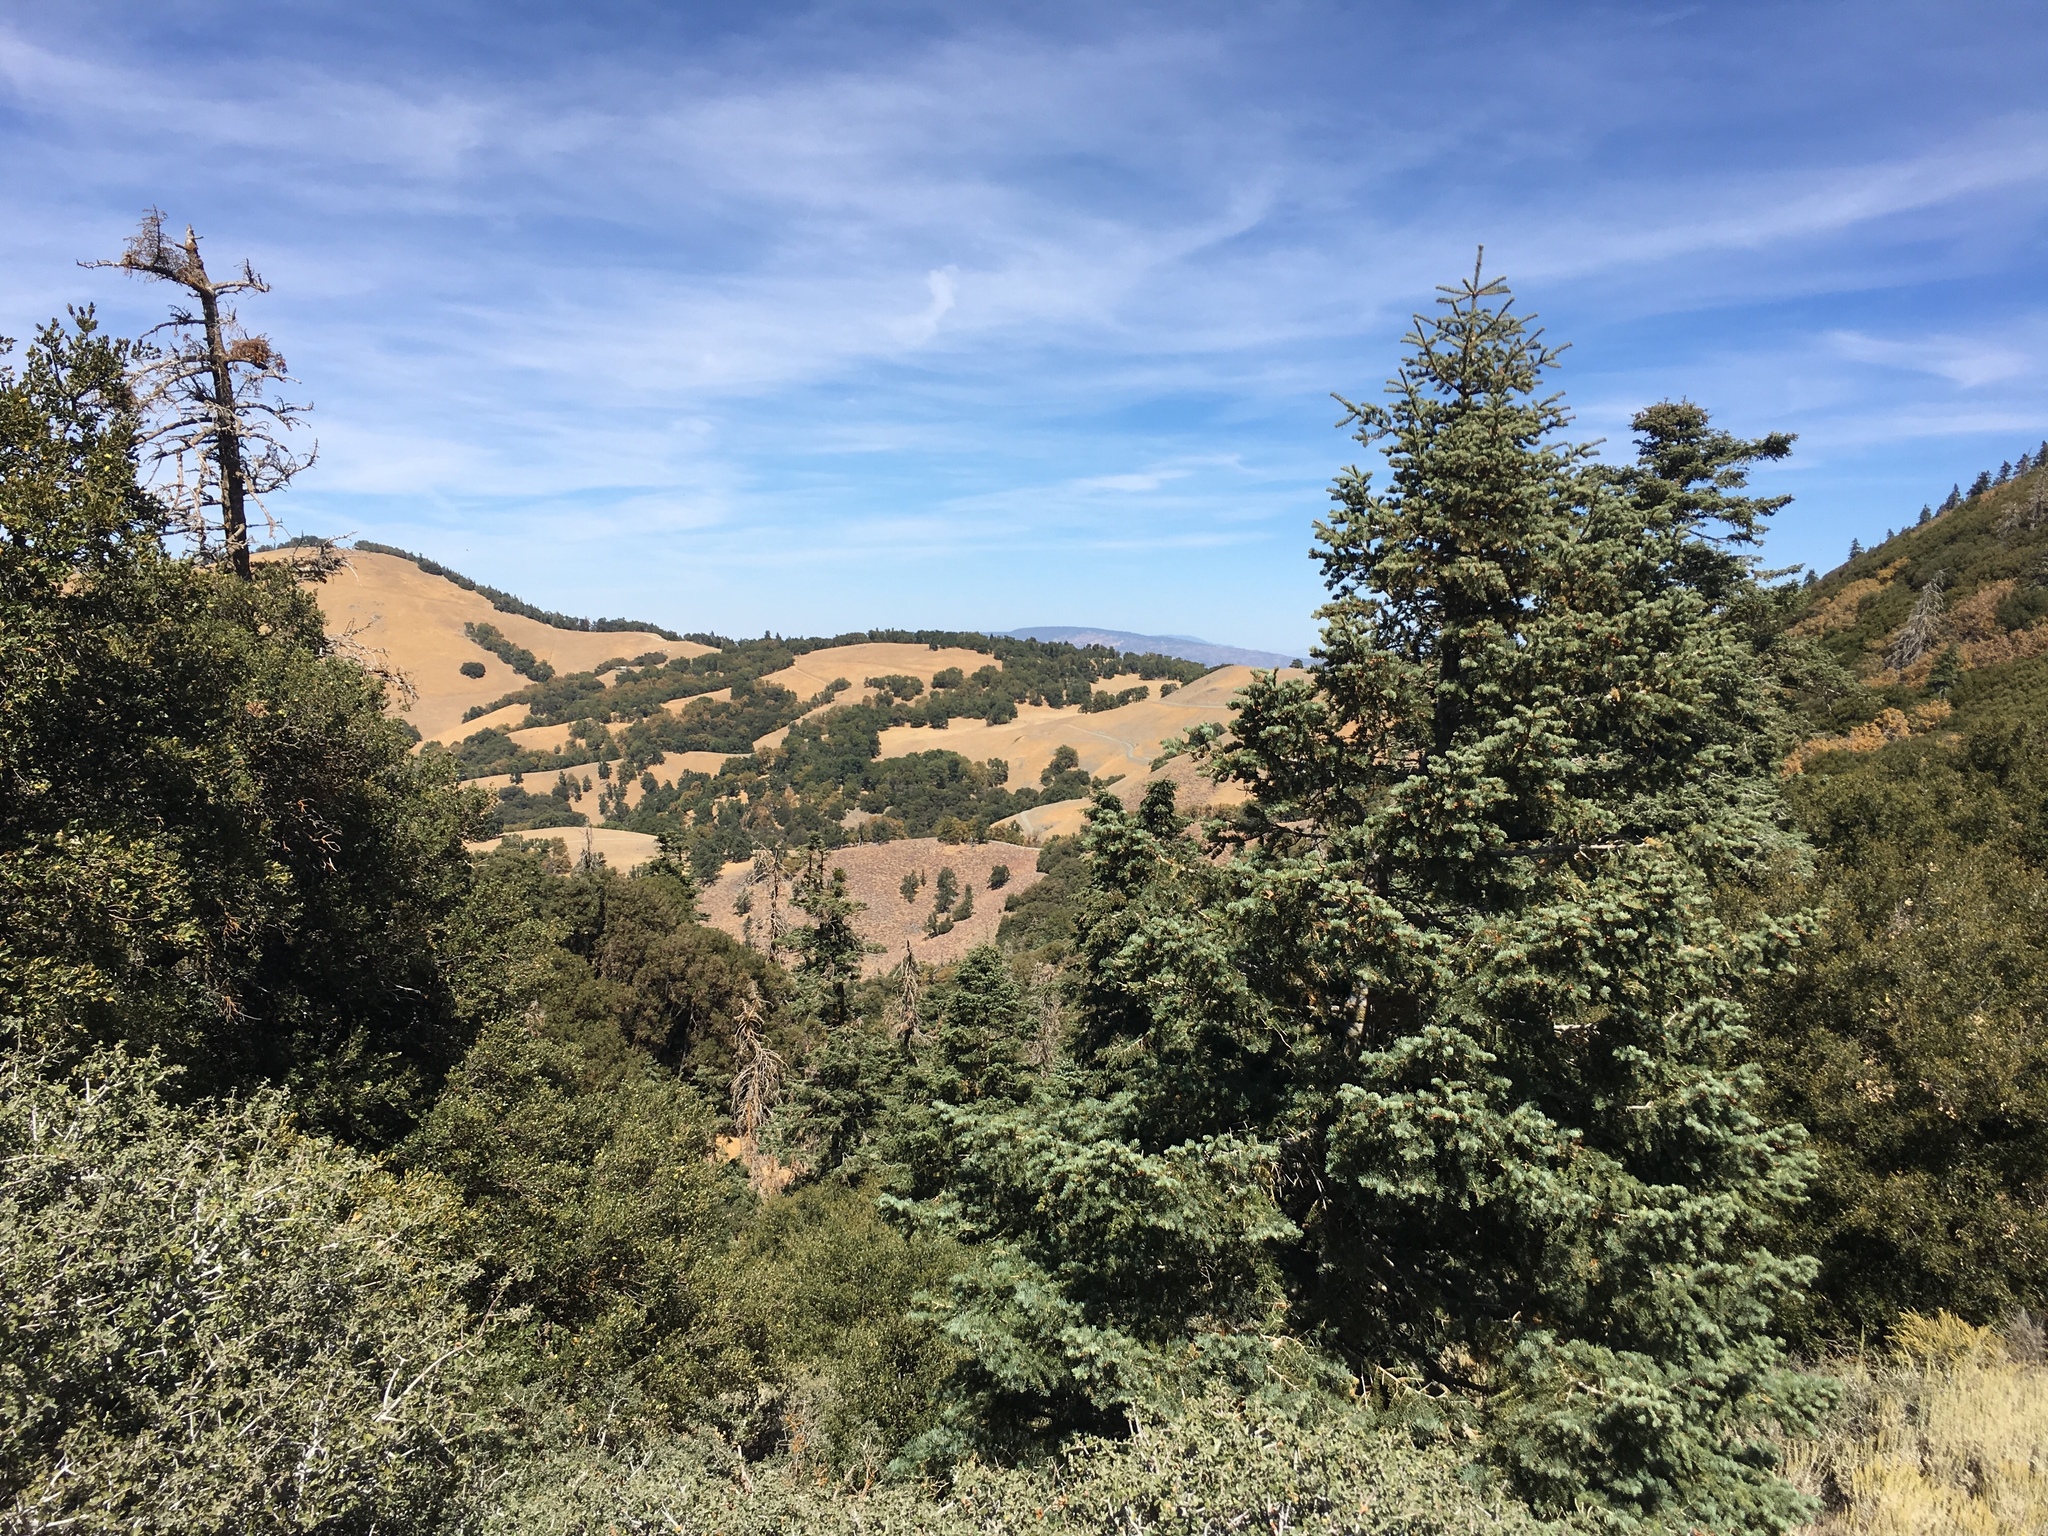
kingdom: Plantae
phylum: Tracheophyta
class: Pinopsida
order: Pinales
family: Pinaceae
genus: Abies
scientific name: Abies concolor
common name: Colorado fir
